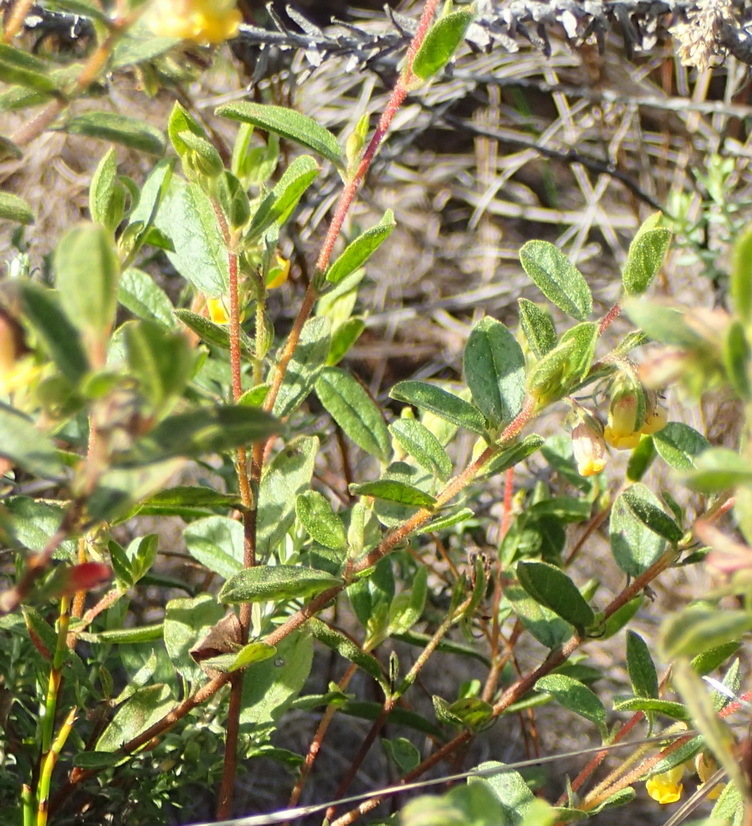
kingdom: Plantae
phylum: Tracheophyta
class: Magnoliopsida
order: Malvales
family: Malvaceae
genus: Hermannia
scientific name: Hermannia salviifolia
